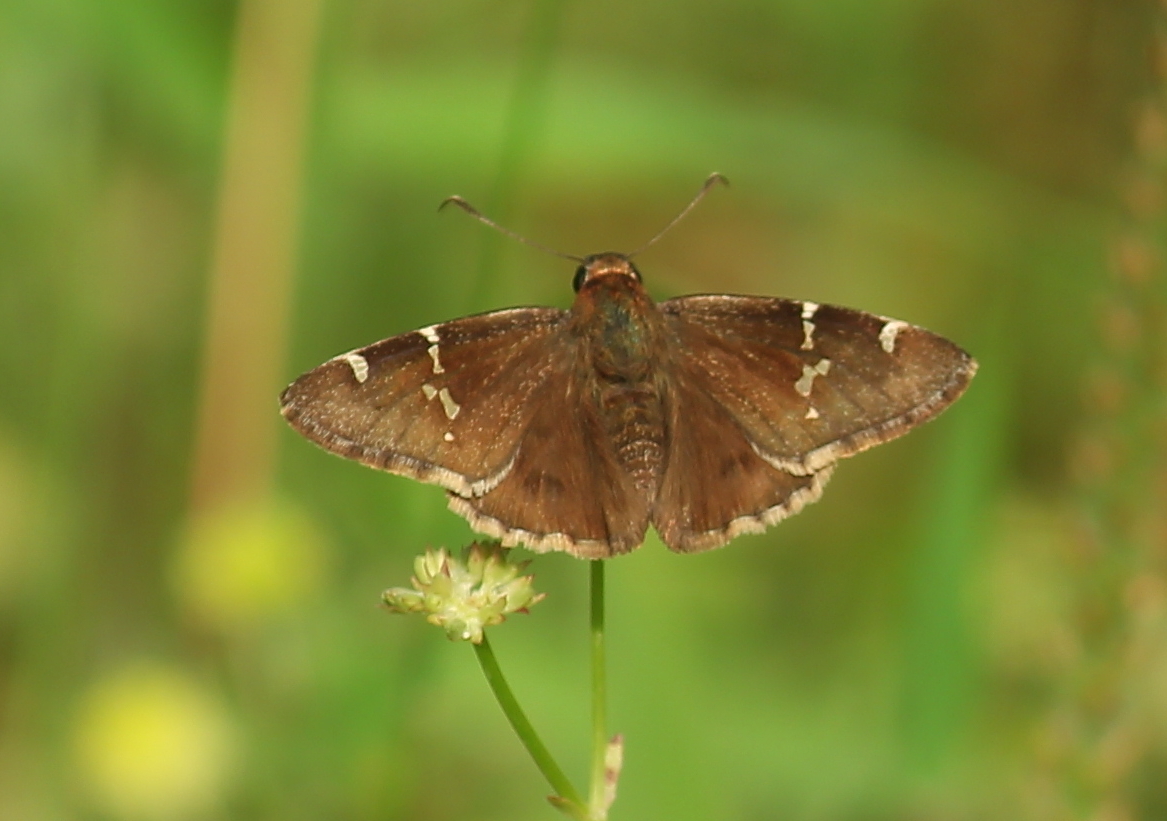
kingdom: Animalia
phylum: Arthropoda
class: Insecta
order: Lepidoptera
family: Hesperiidae
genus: Thorybes
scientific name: Thorybes daunus
